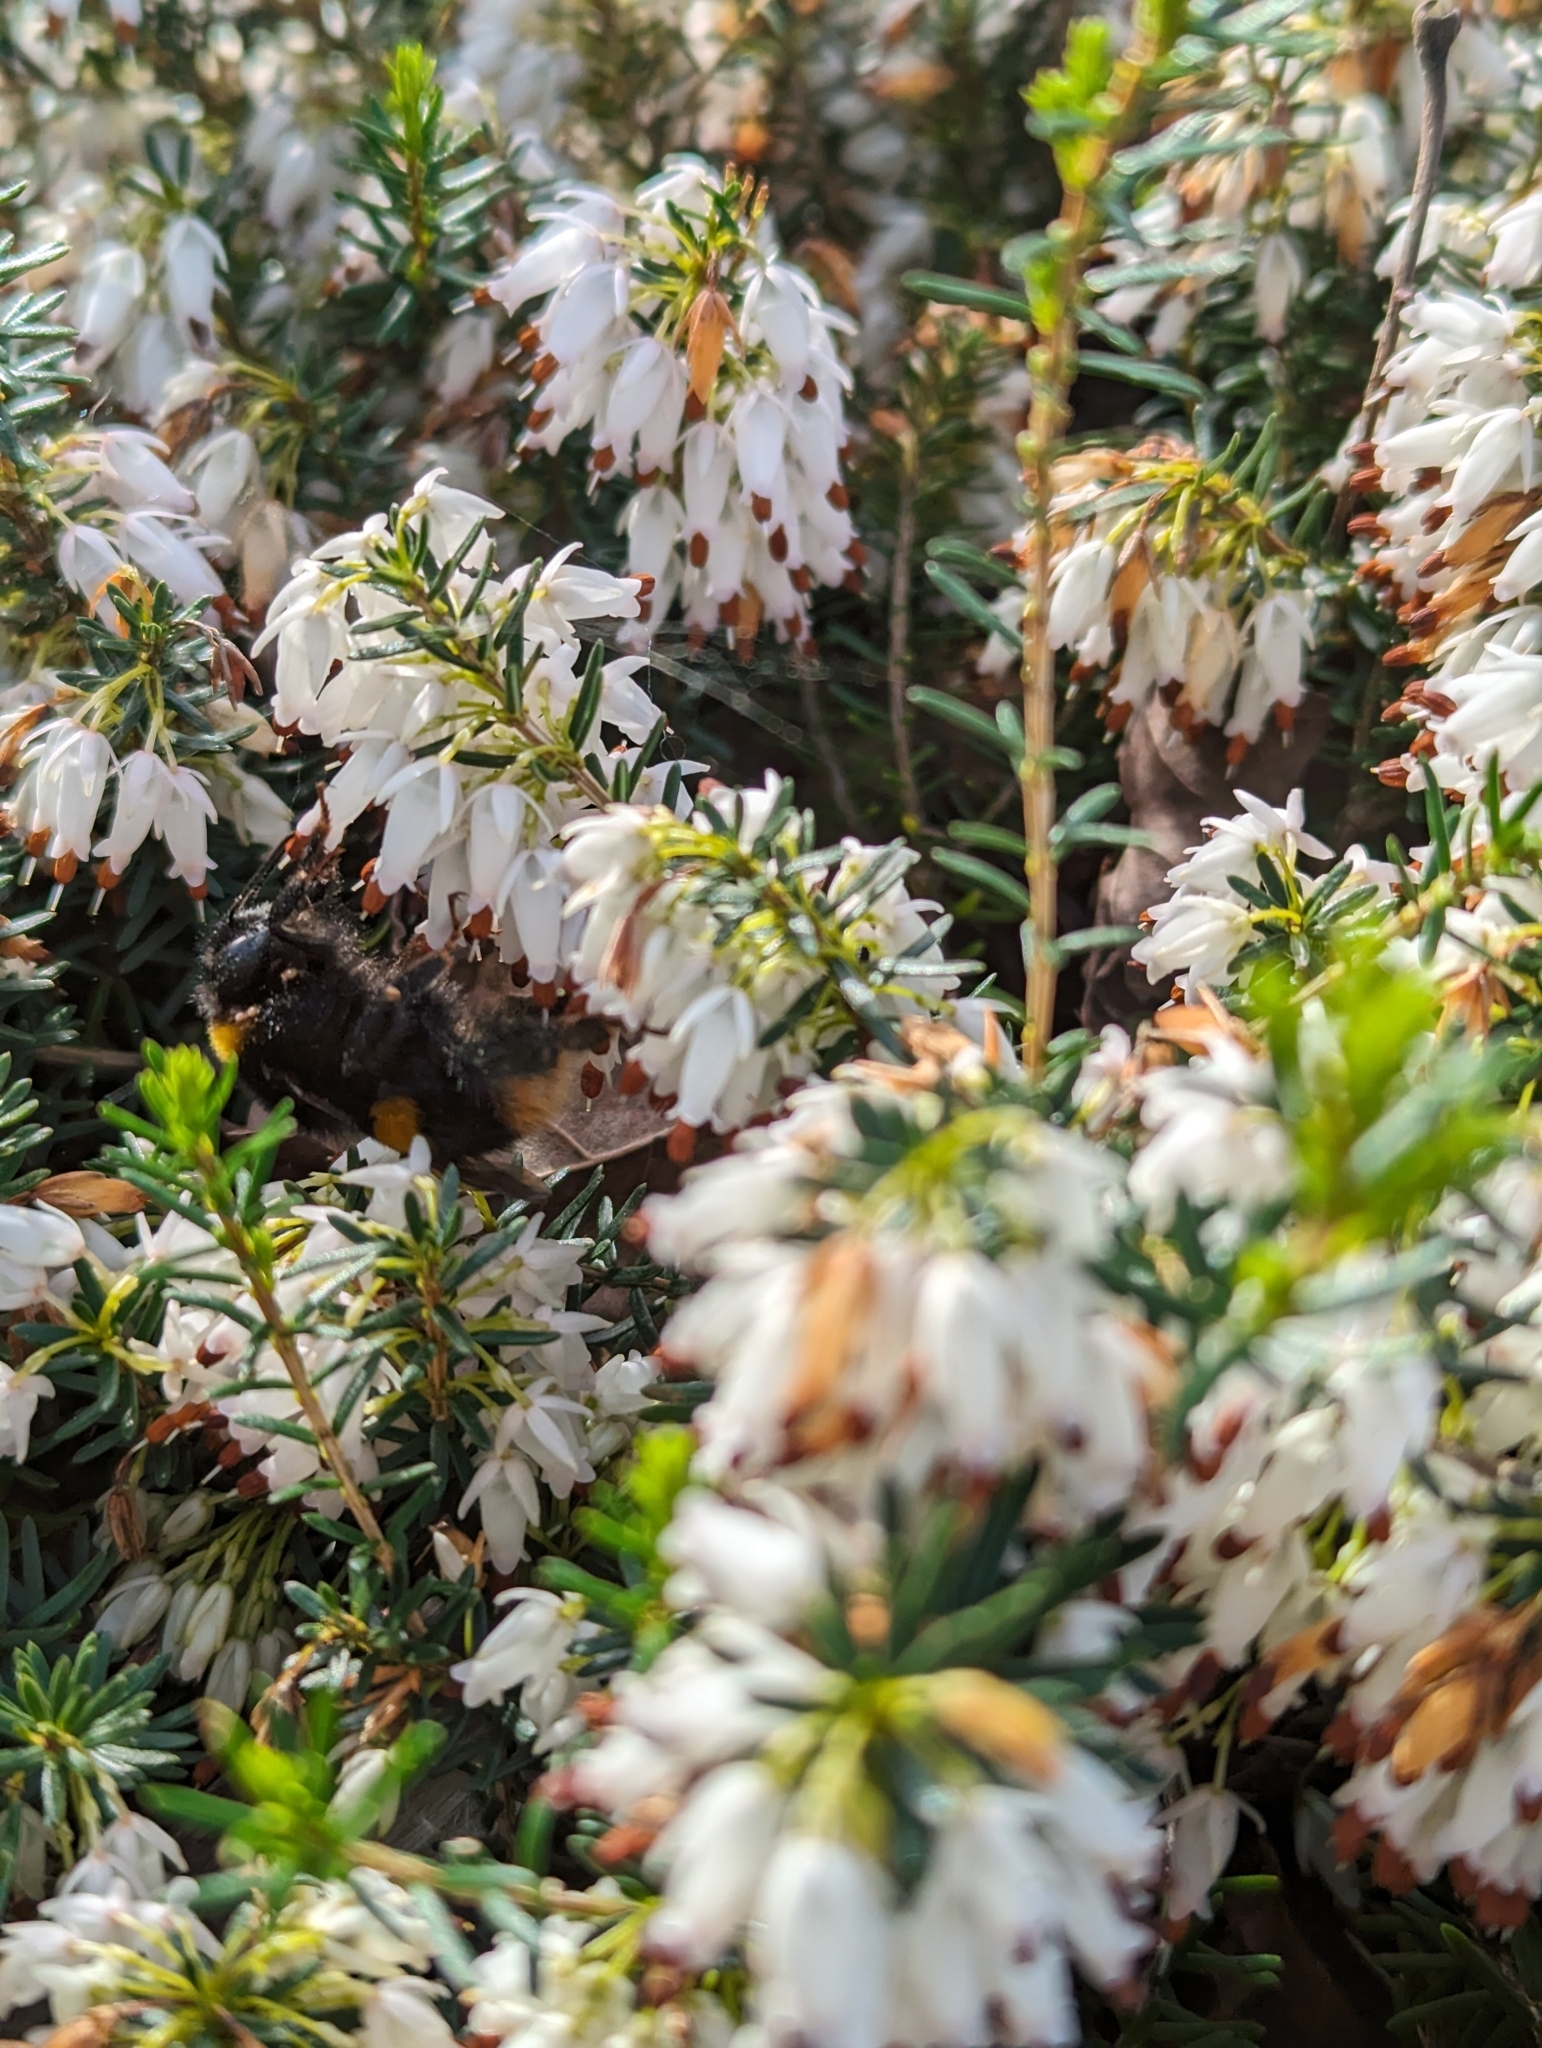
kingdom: Animalia
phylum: Arthropoda
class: Insecta
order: Hymenoptera
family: Apidae
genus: Bombus
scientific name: Bombus terrestris
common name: Buff-tailed bumblebee
